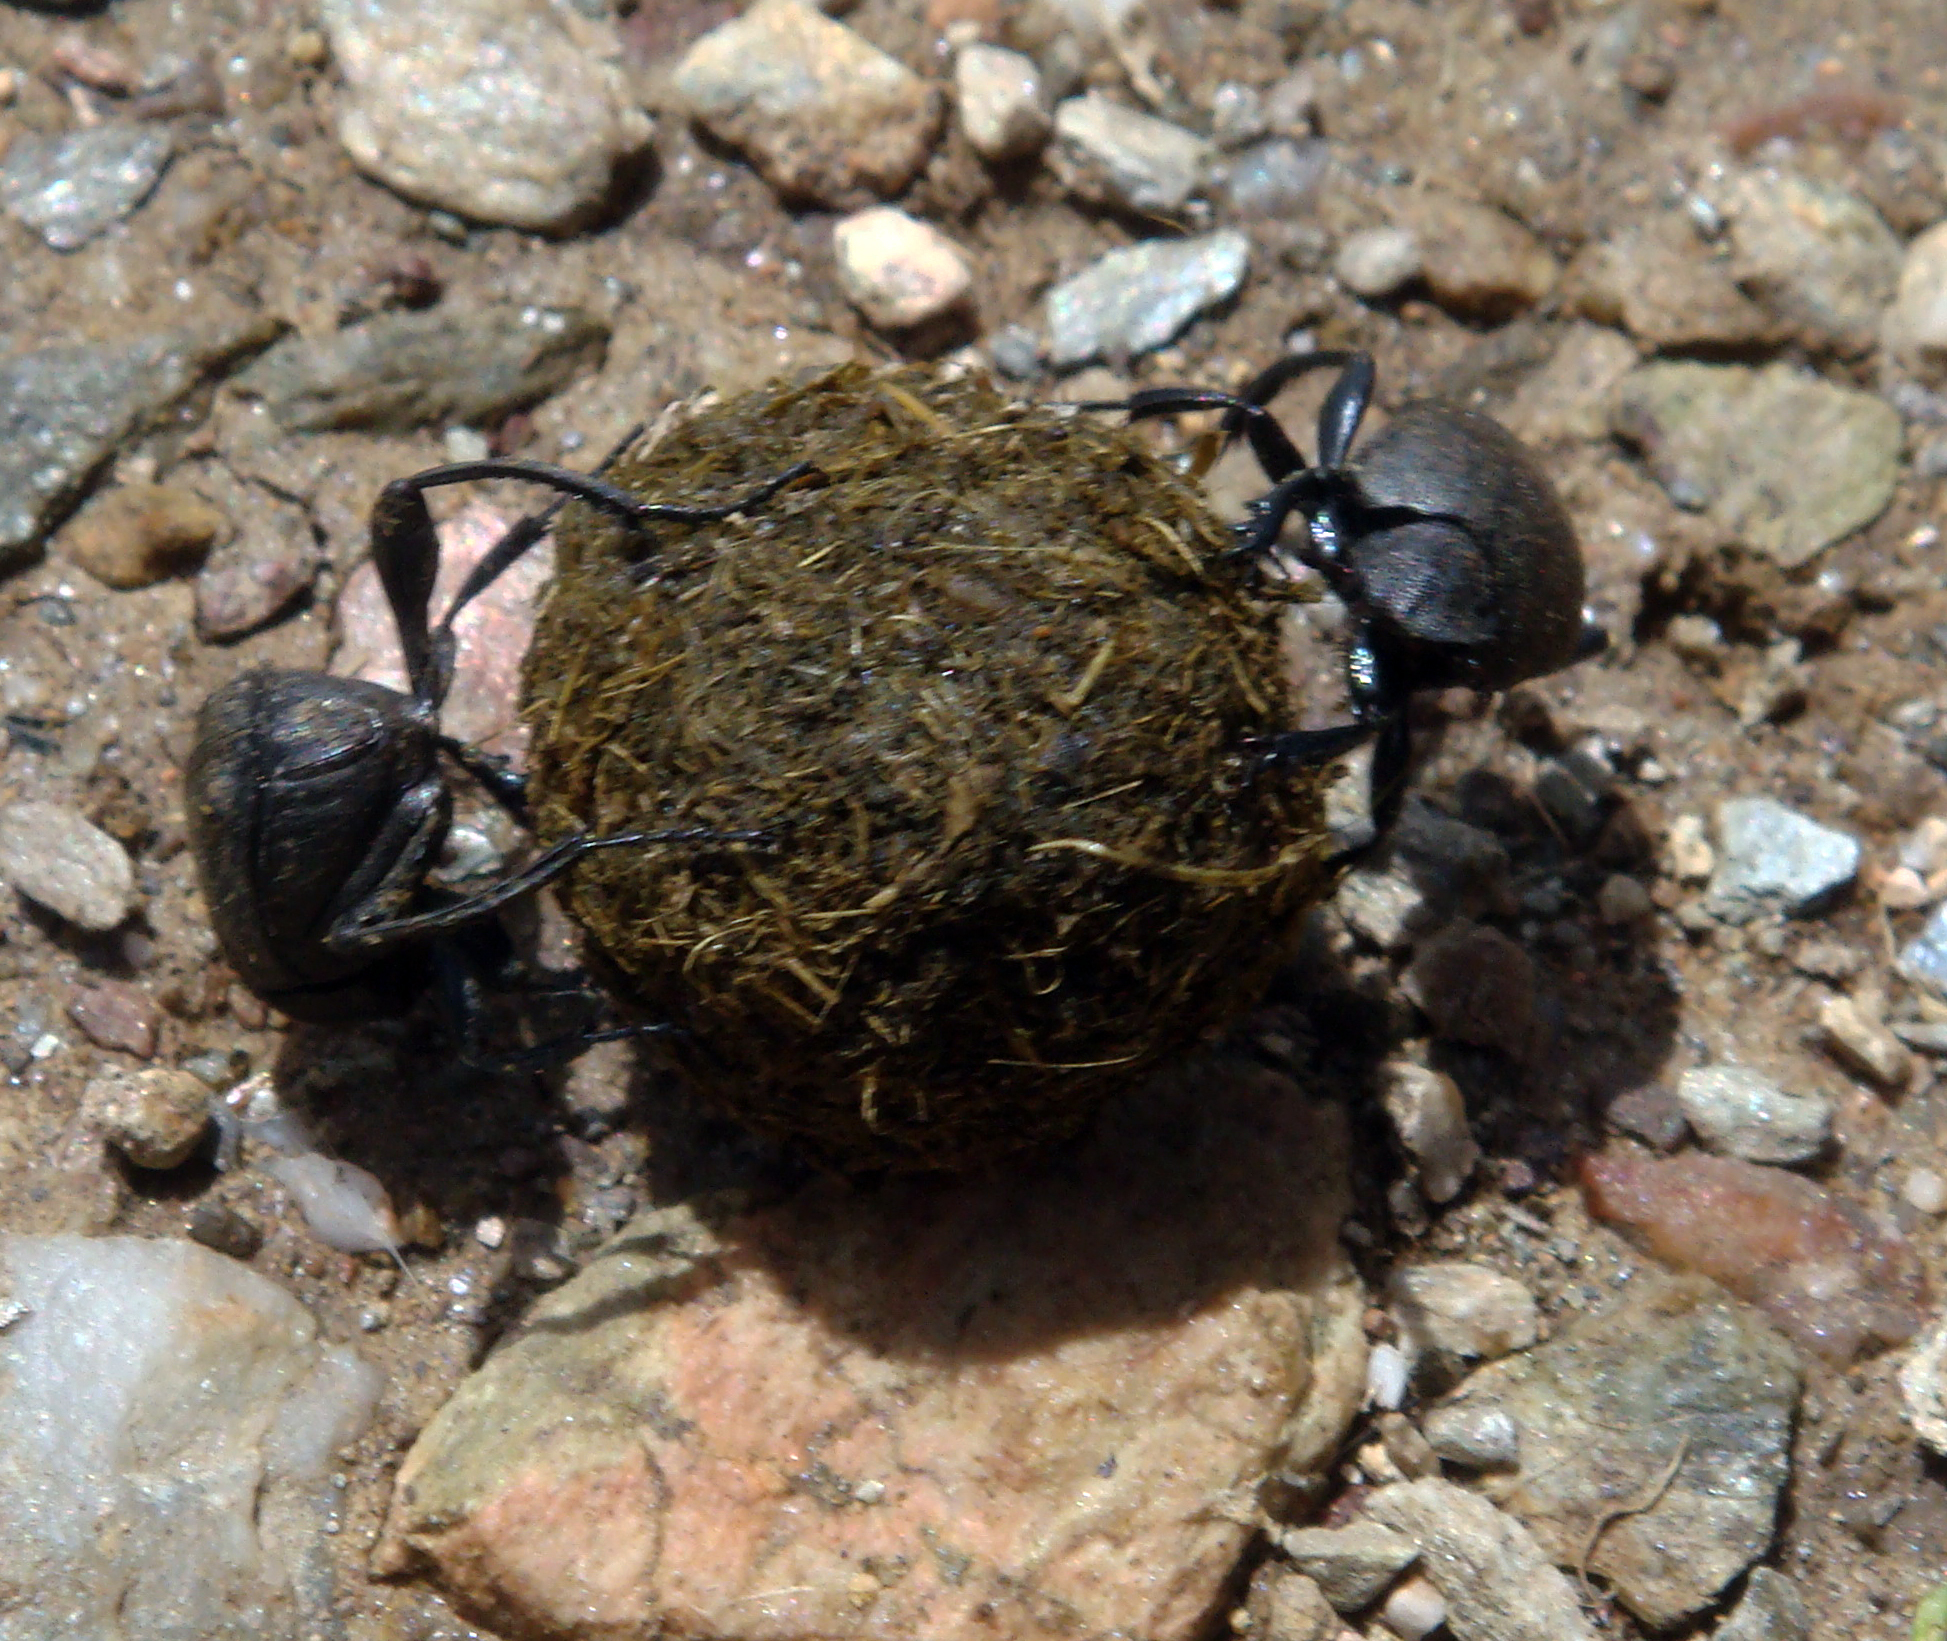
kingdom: Animalia
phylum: Arthropoda
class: Insecta
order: Coleoptera
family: Scarabaeidae
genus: Sisyphus
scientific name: Sisyphus schaefferi
